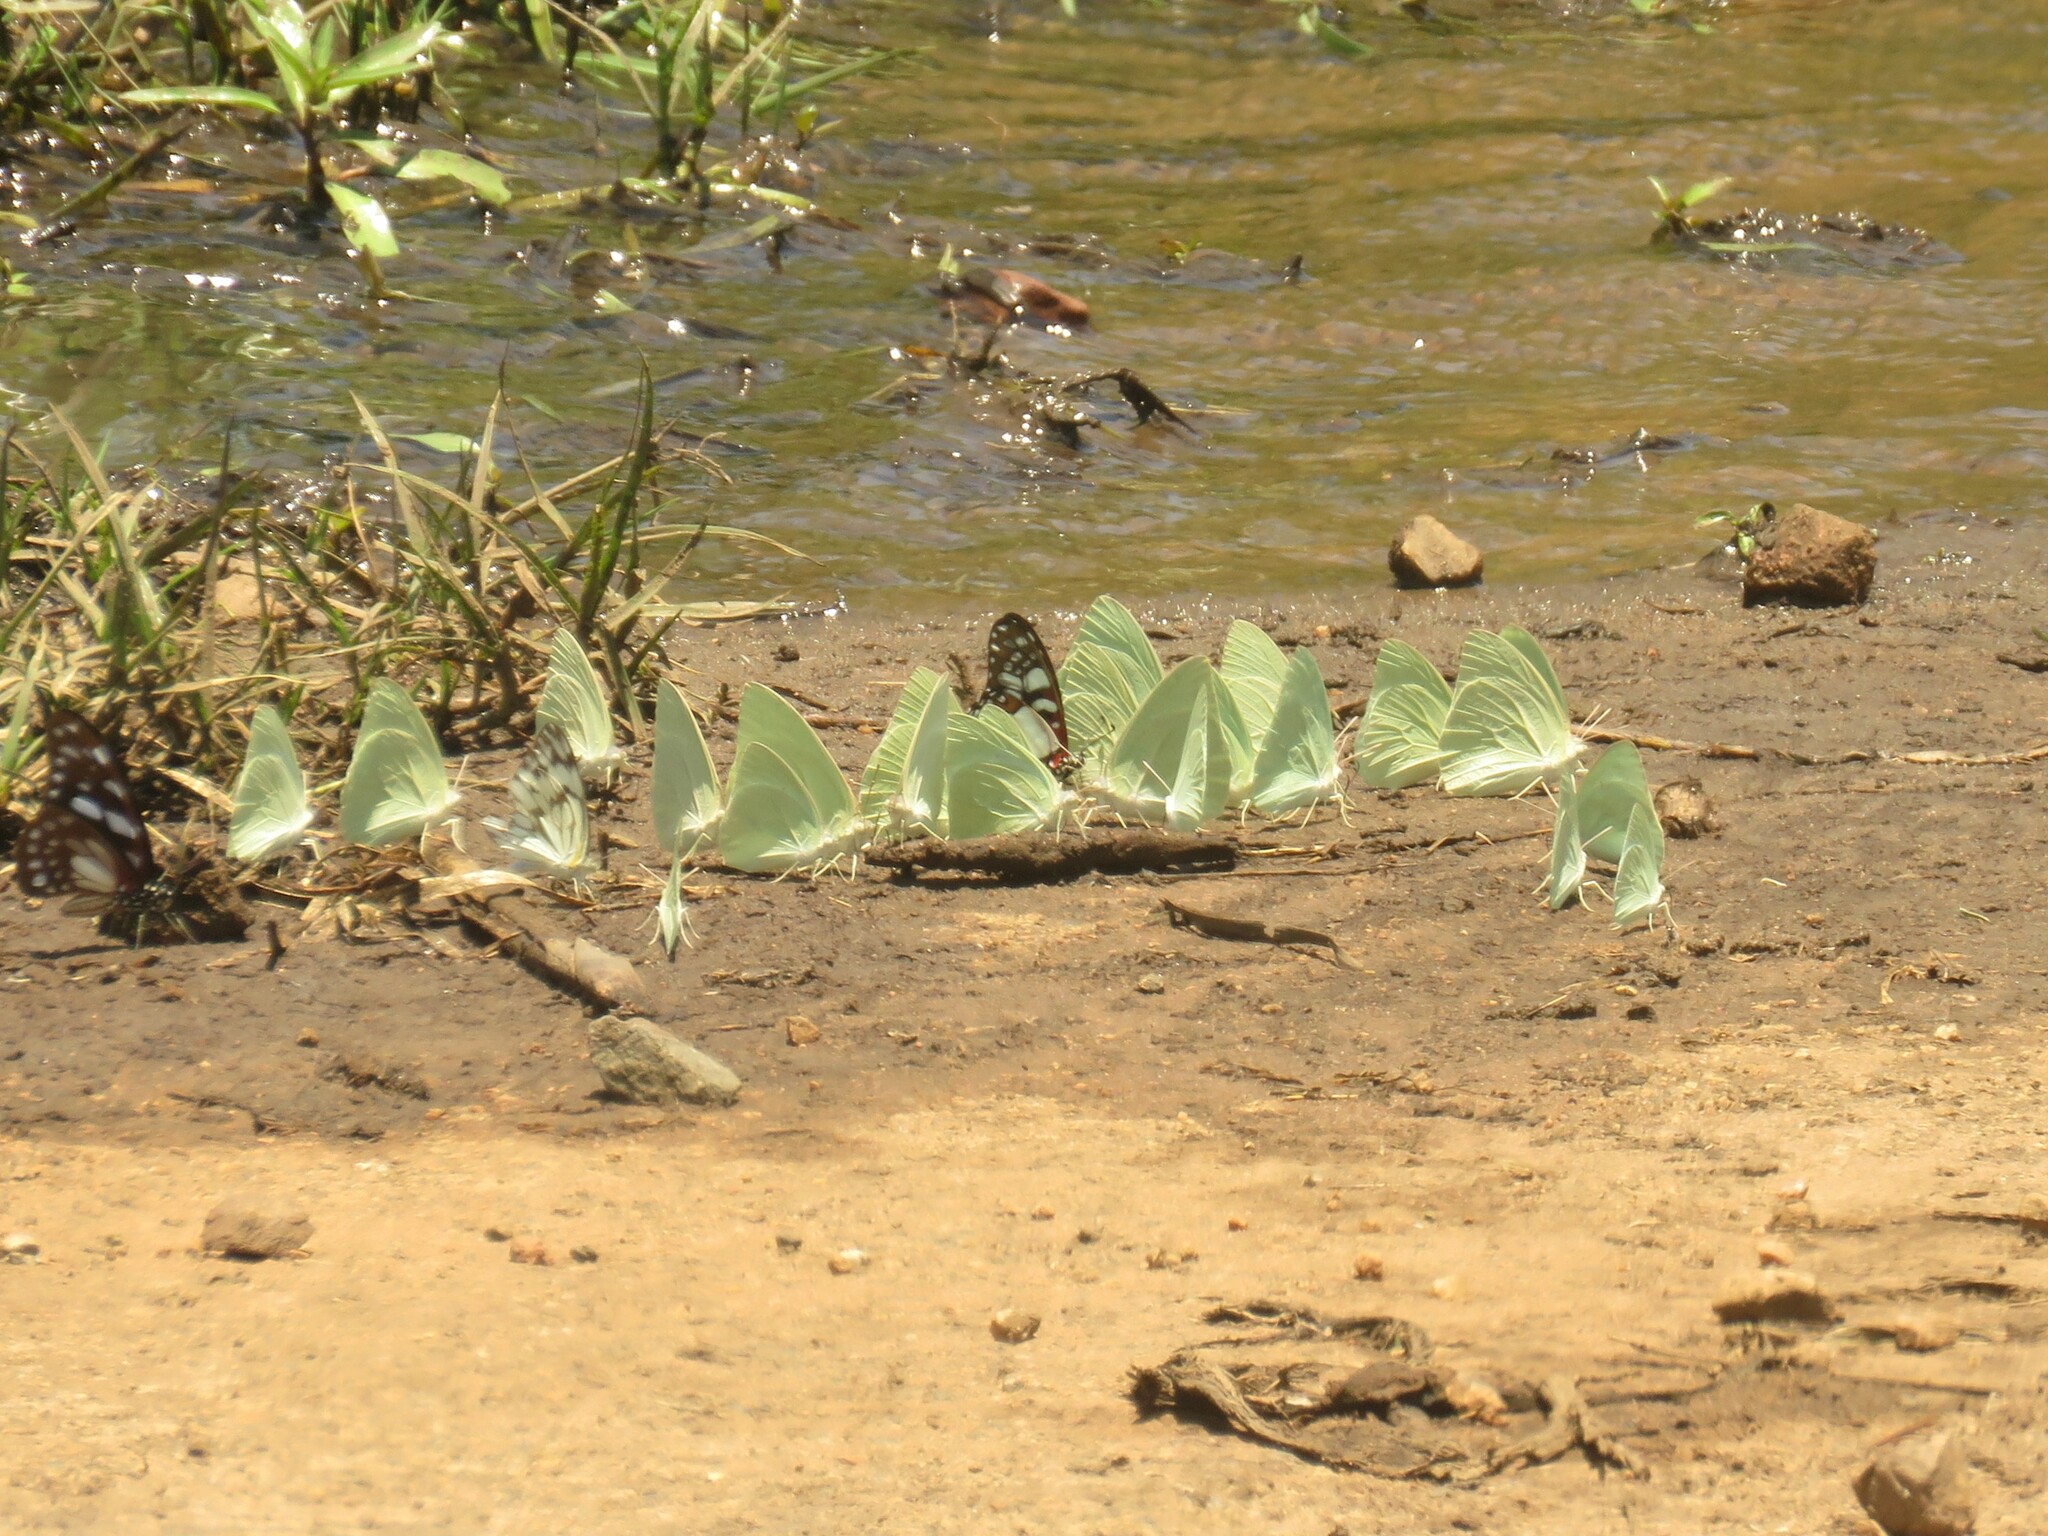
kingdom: Animalia
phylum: Arthropoda
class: Insecta
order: Lepidoptera
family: Papilionidae
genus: Graphium
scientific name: Graphium leonidas
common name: Common graphium
